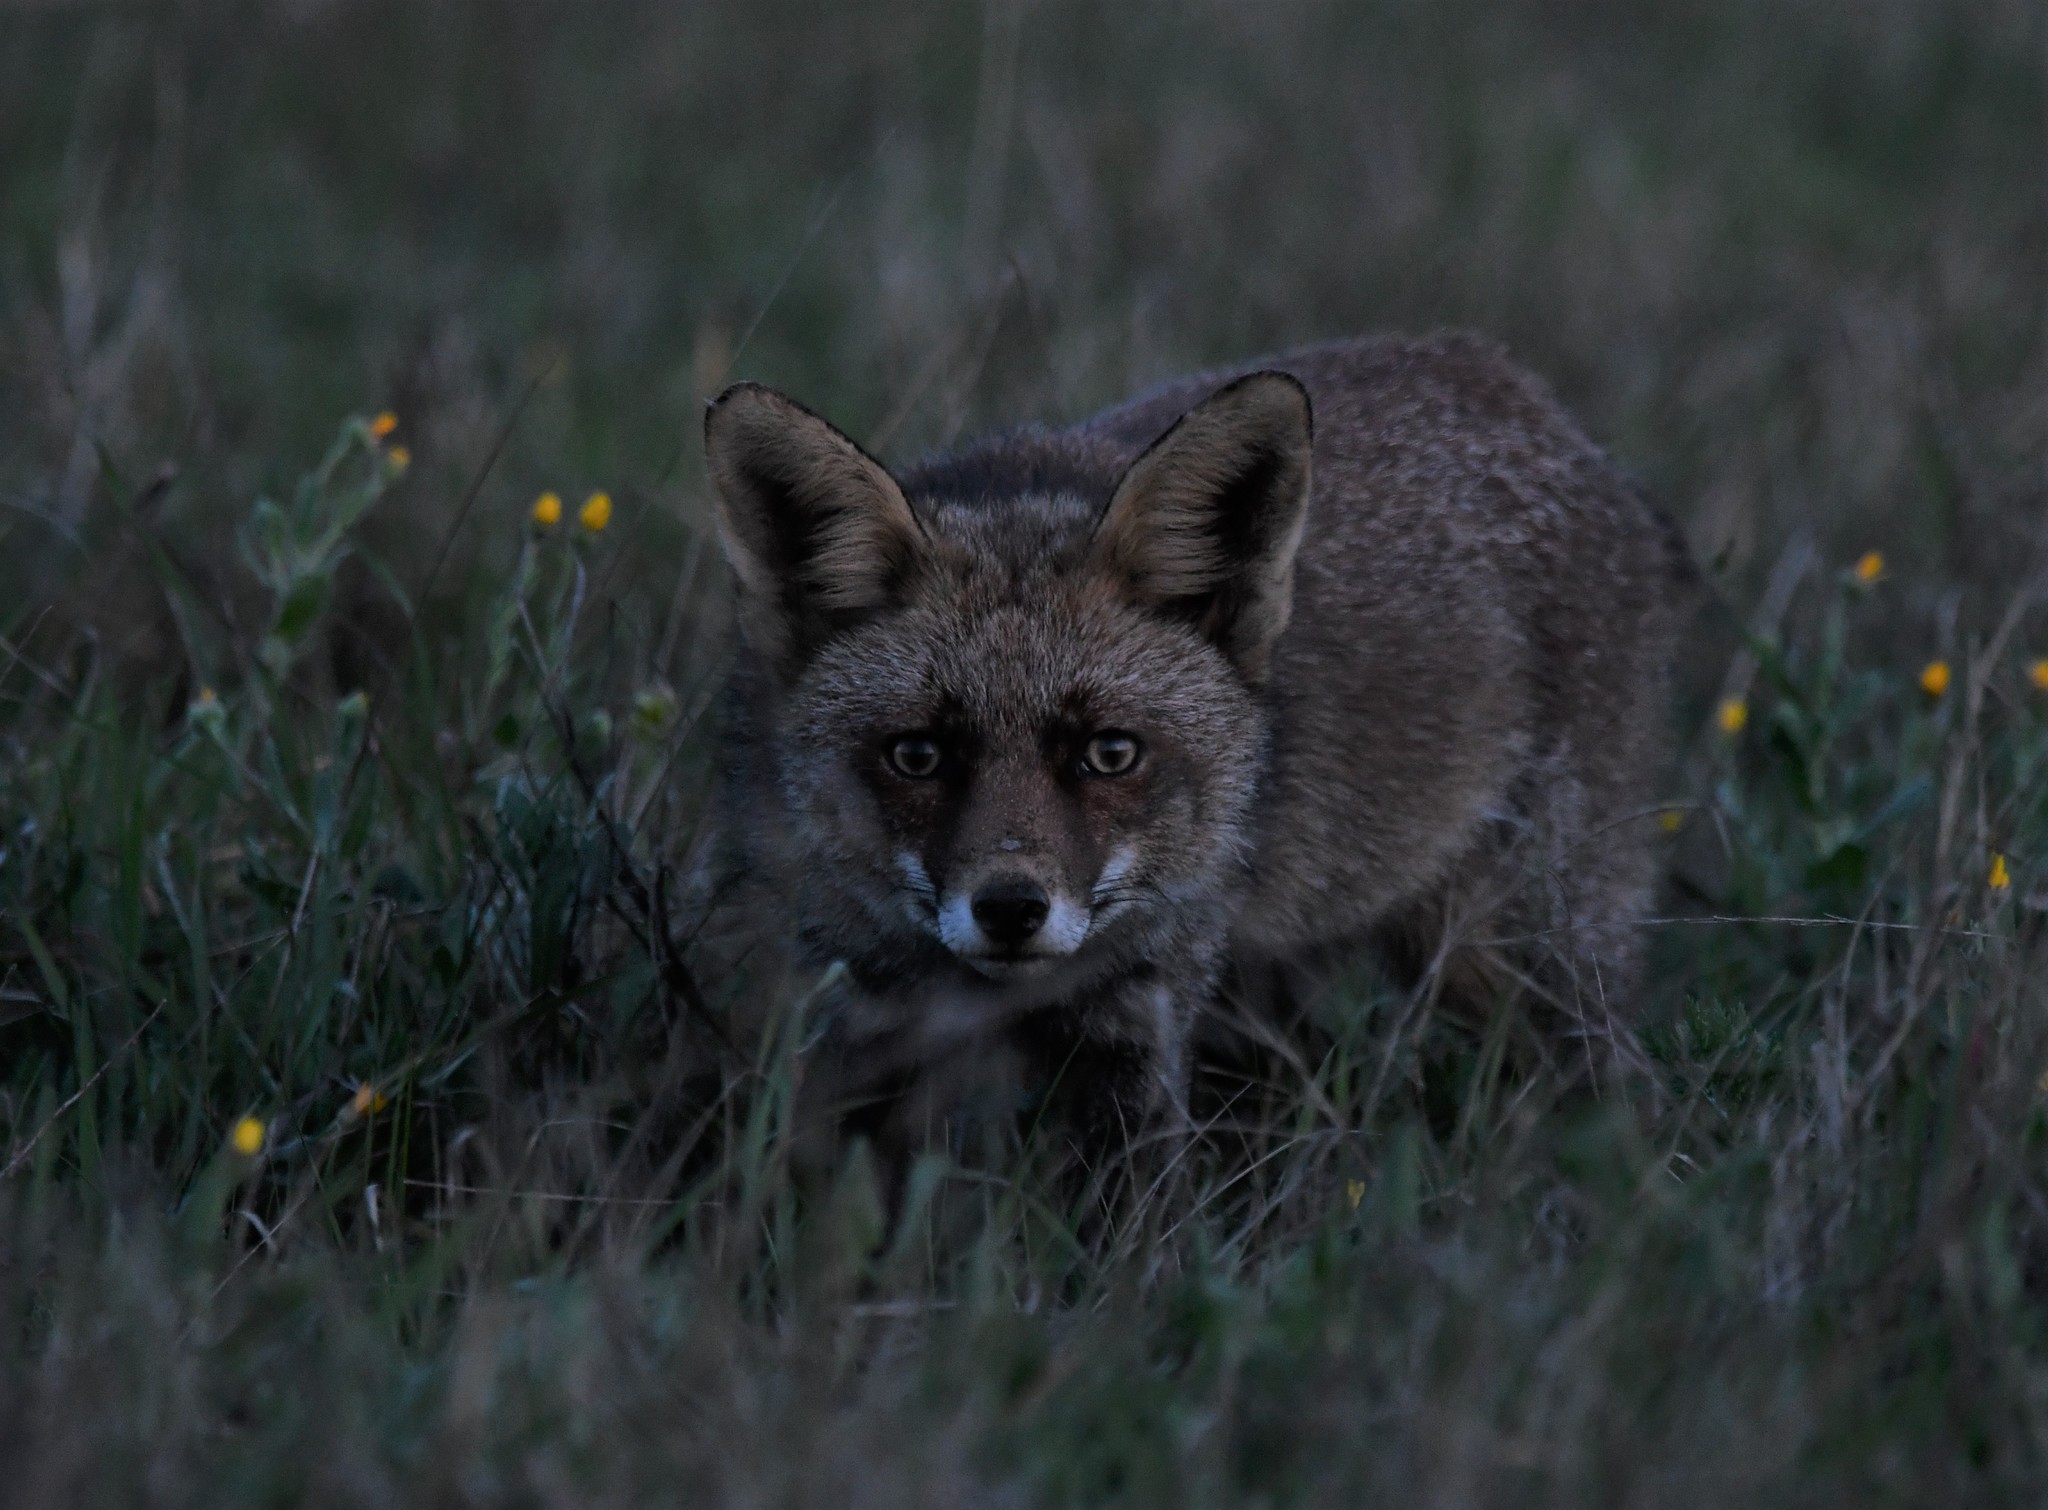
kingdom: Animalia
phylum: Chordata
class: Mammalia
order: Carnivora
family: Canidae
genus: Vulpes
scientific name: Vulpes vulpes
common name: Red fox
